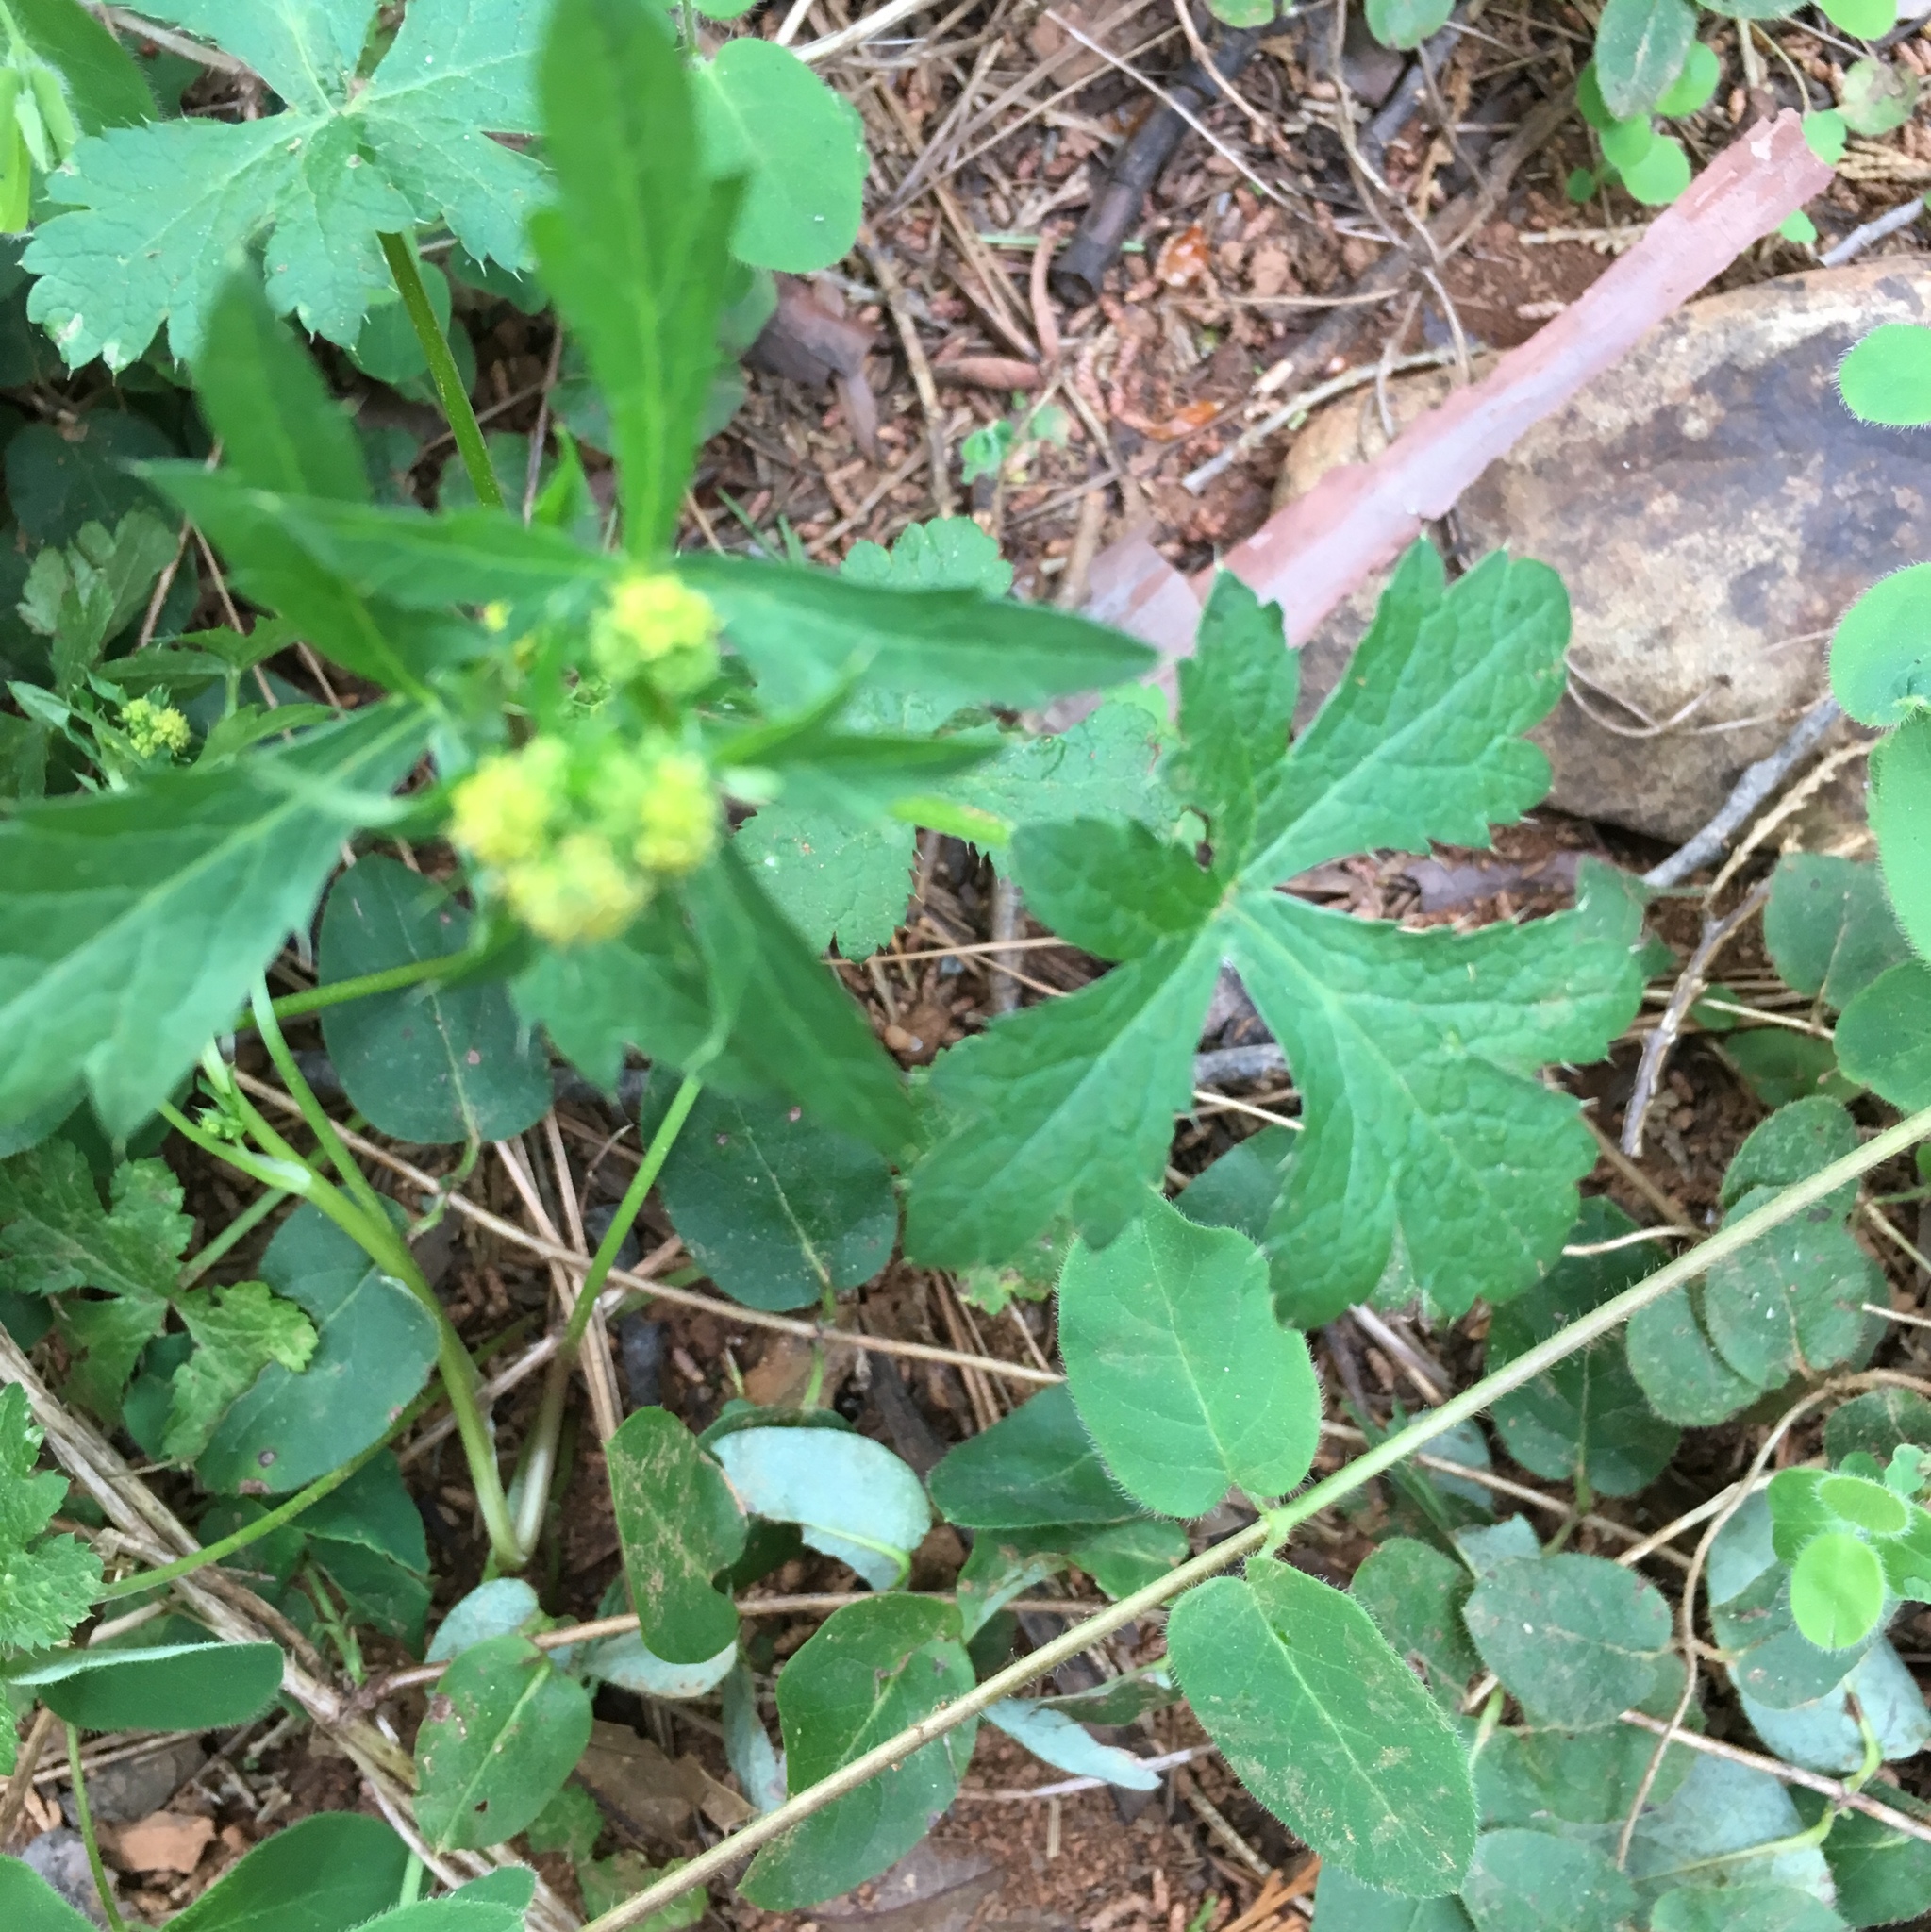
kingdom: Plantae
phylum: Tracheophyta
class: Magnoliopsida
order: Apiales
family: Apiaceae
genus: Sanicula
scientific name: Sanicula crassicaulis
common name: Western snakeroot
